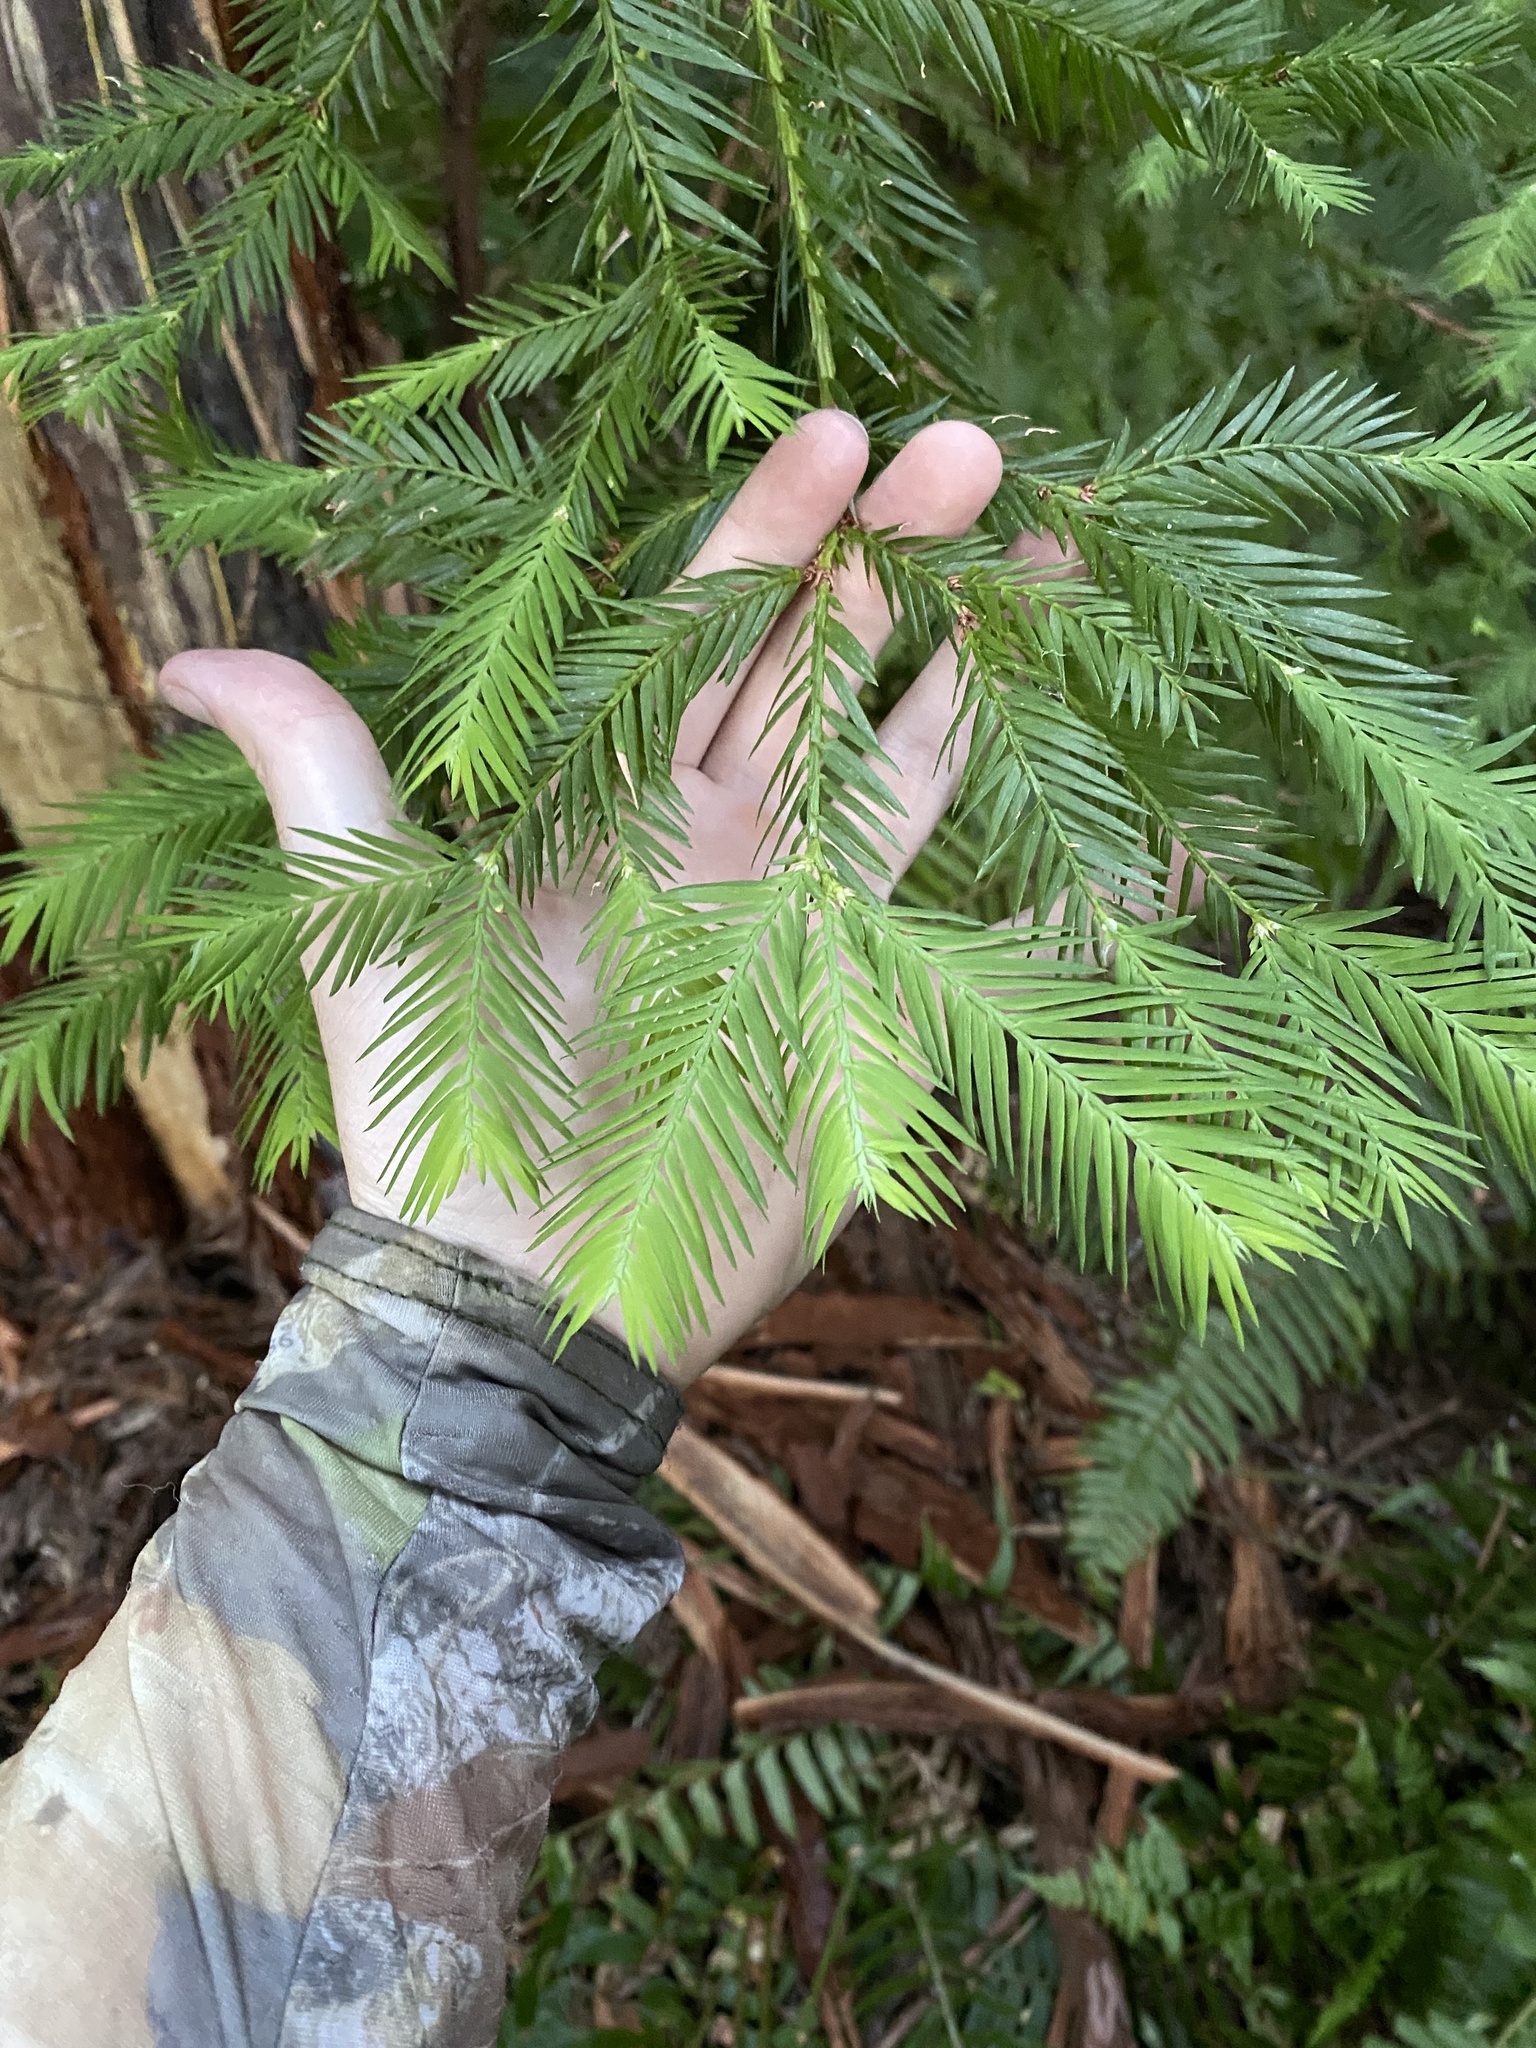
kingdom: Plantae
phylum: Tracheophyta
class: Pinopsida
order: Pinales
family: Cupressaceae
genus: Sequoia
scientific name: Sequoia sempervirens
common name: Coast redwood
